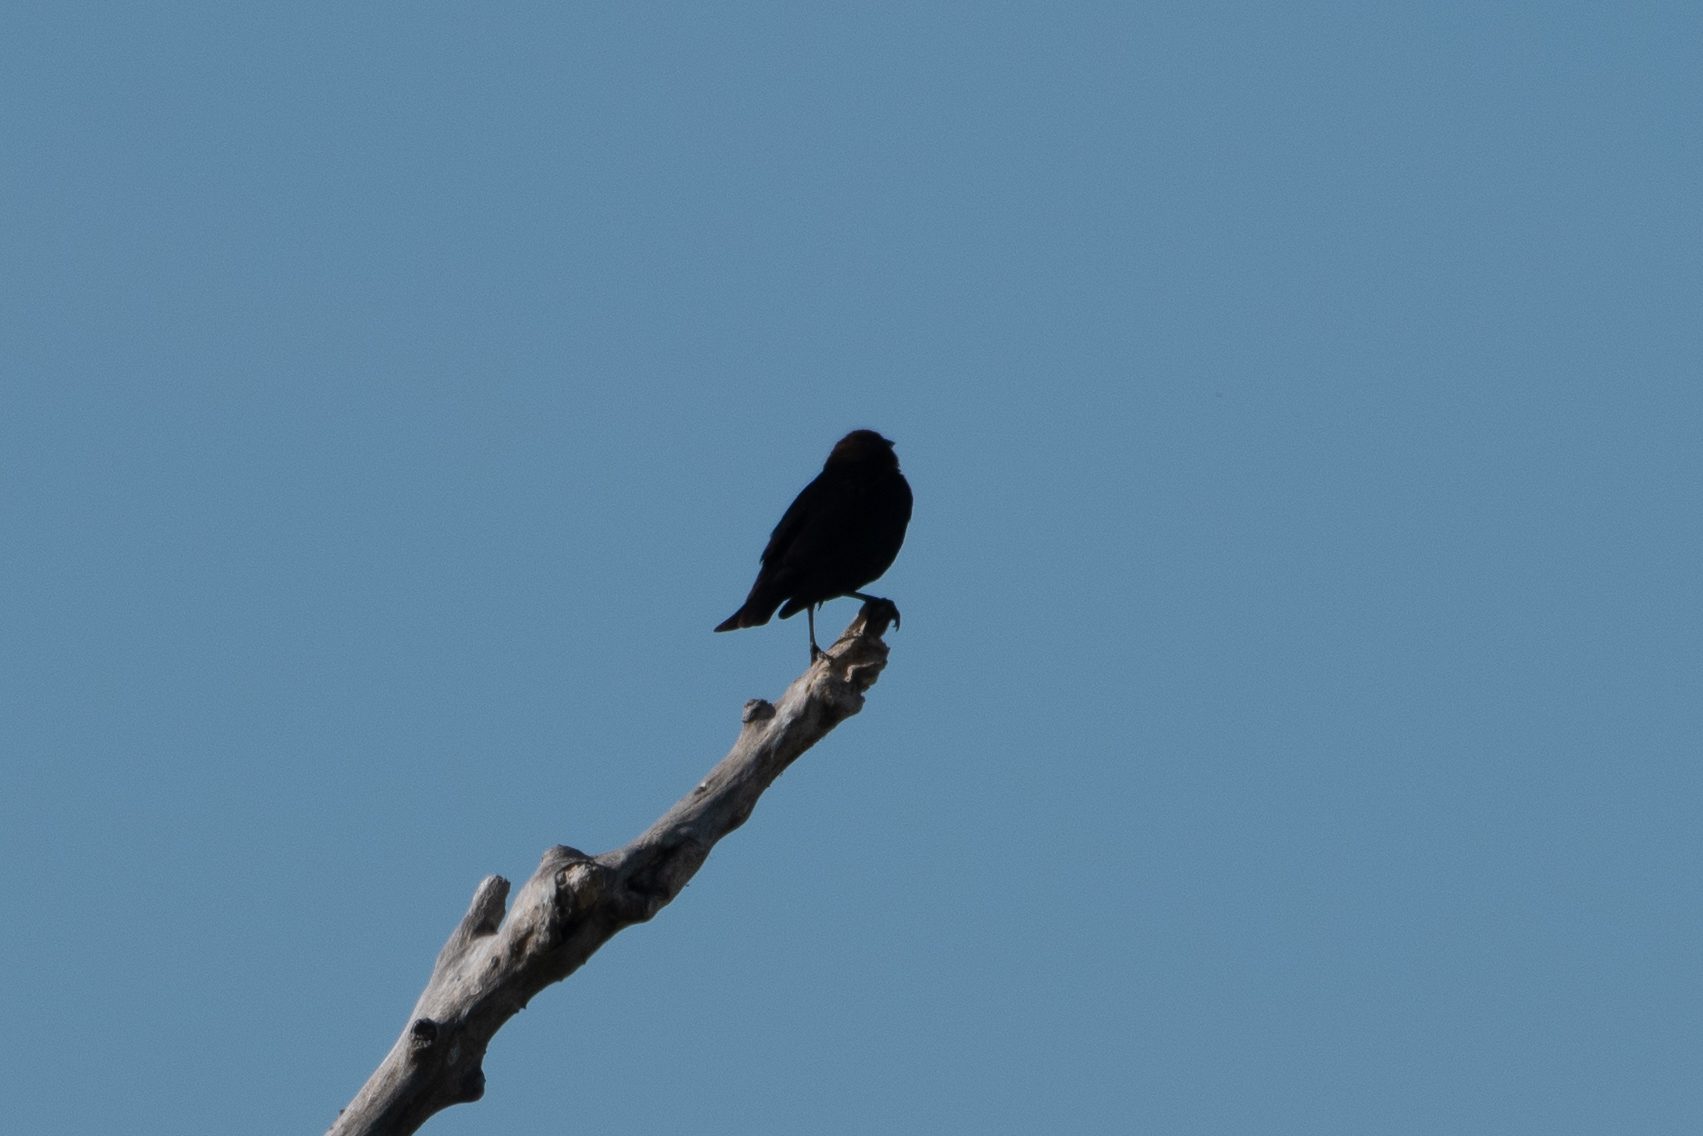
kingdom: Animalia
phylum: Chordata
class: Aves
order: Passeriformes
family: Icteridae
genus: Molothrus
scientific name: Molothrus ater
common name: Brown-headed cowbird
